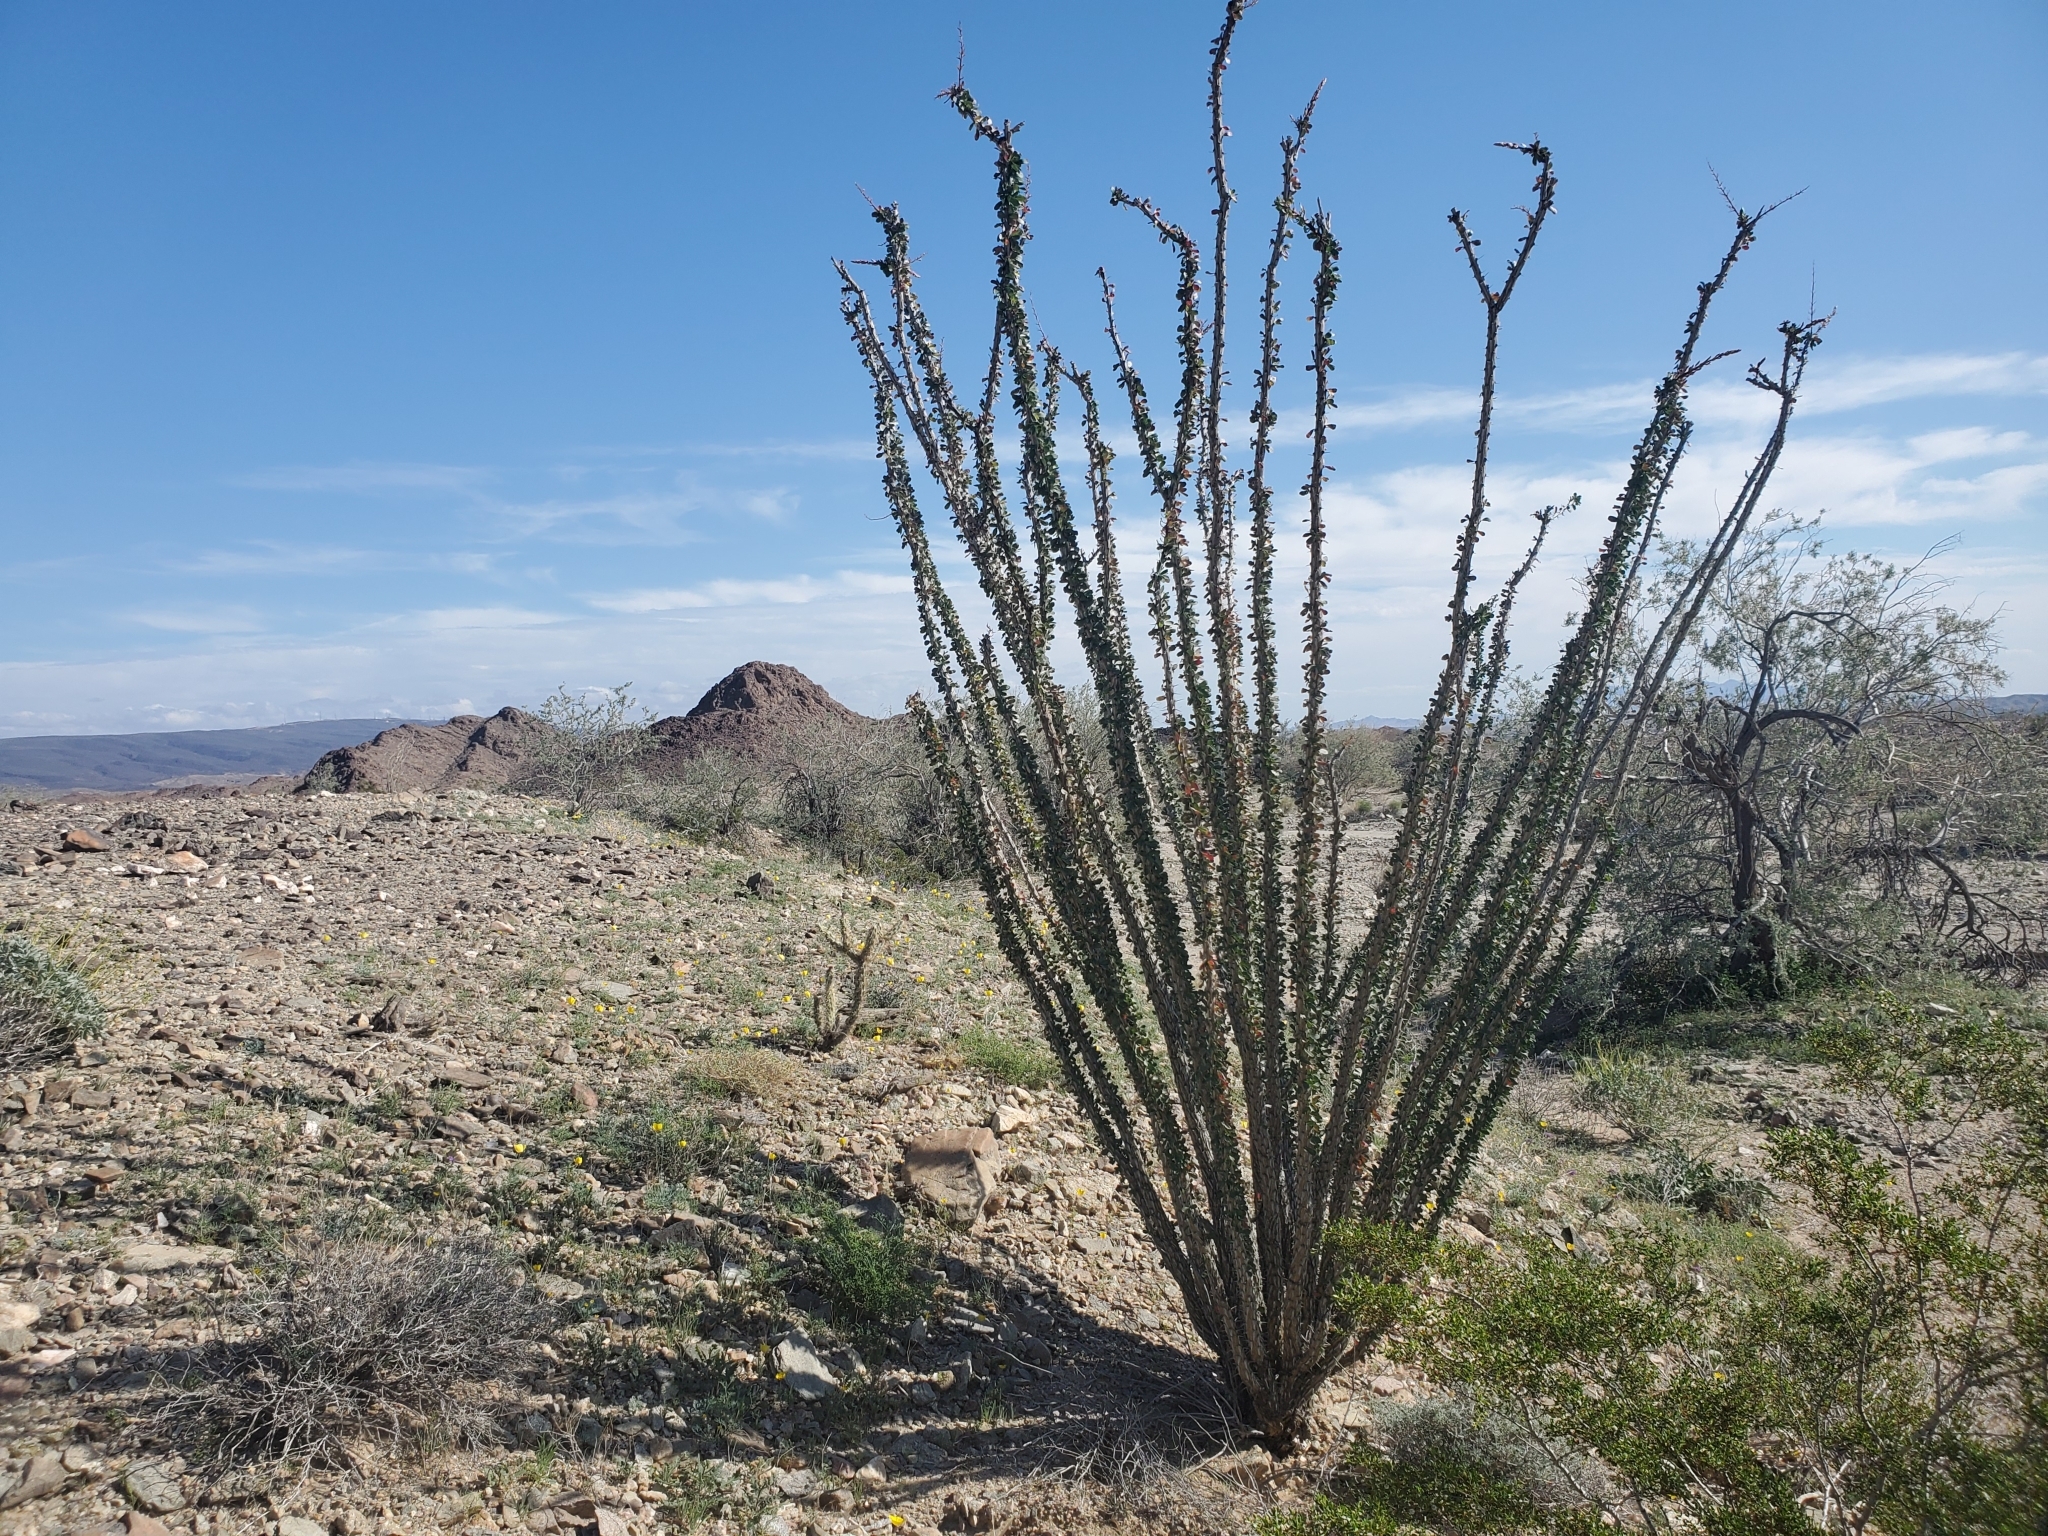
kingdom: Plantae
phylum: Tracheophyta
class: Magnoliopsida
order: Ericales
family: Fouquieriaceae
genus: Fouquieria
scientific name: Fouquieria splendens
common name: Vine-cactus
